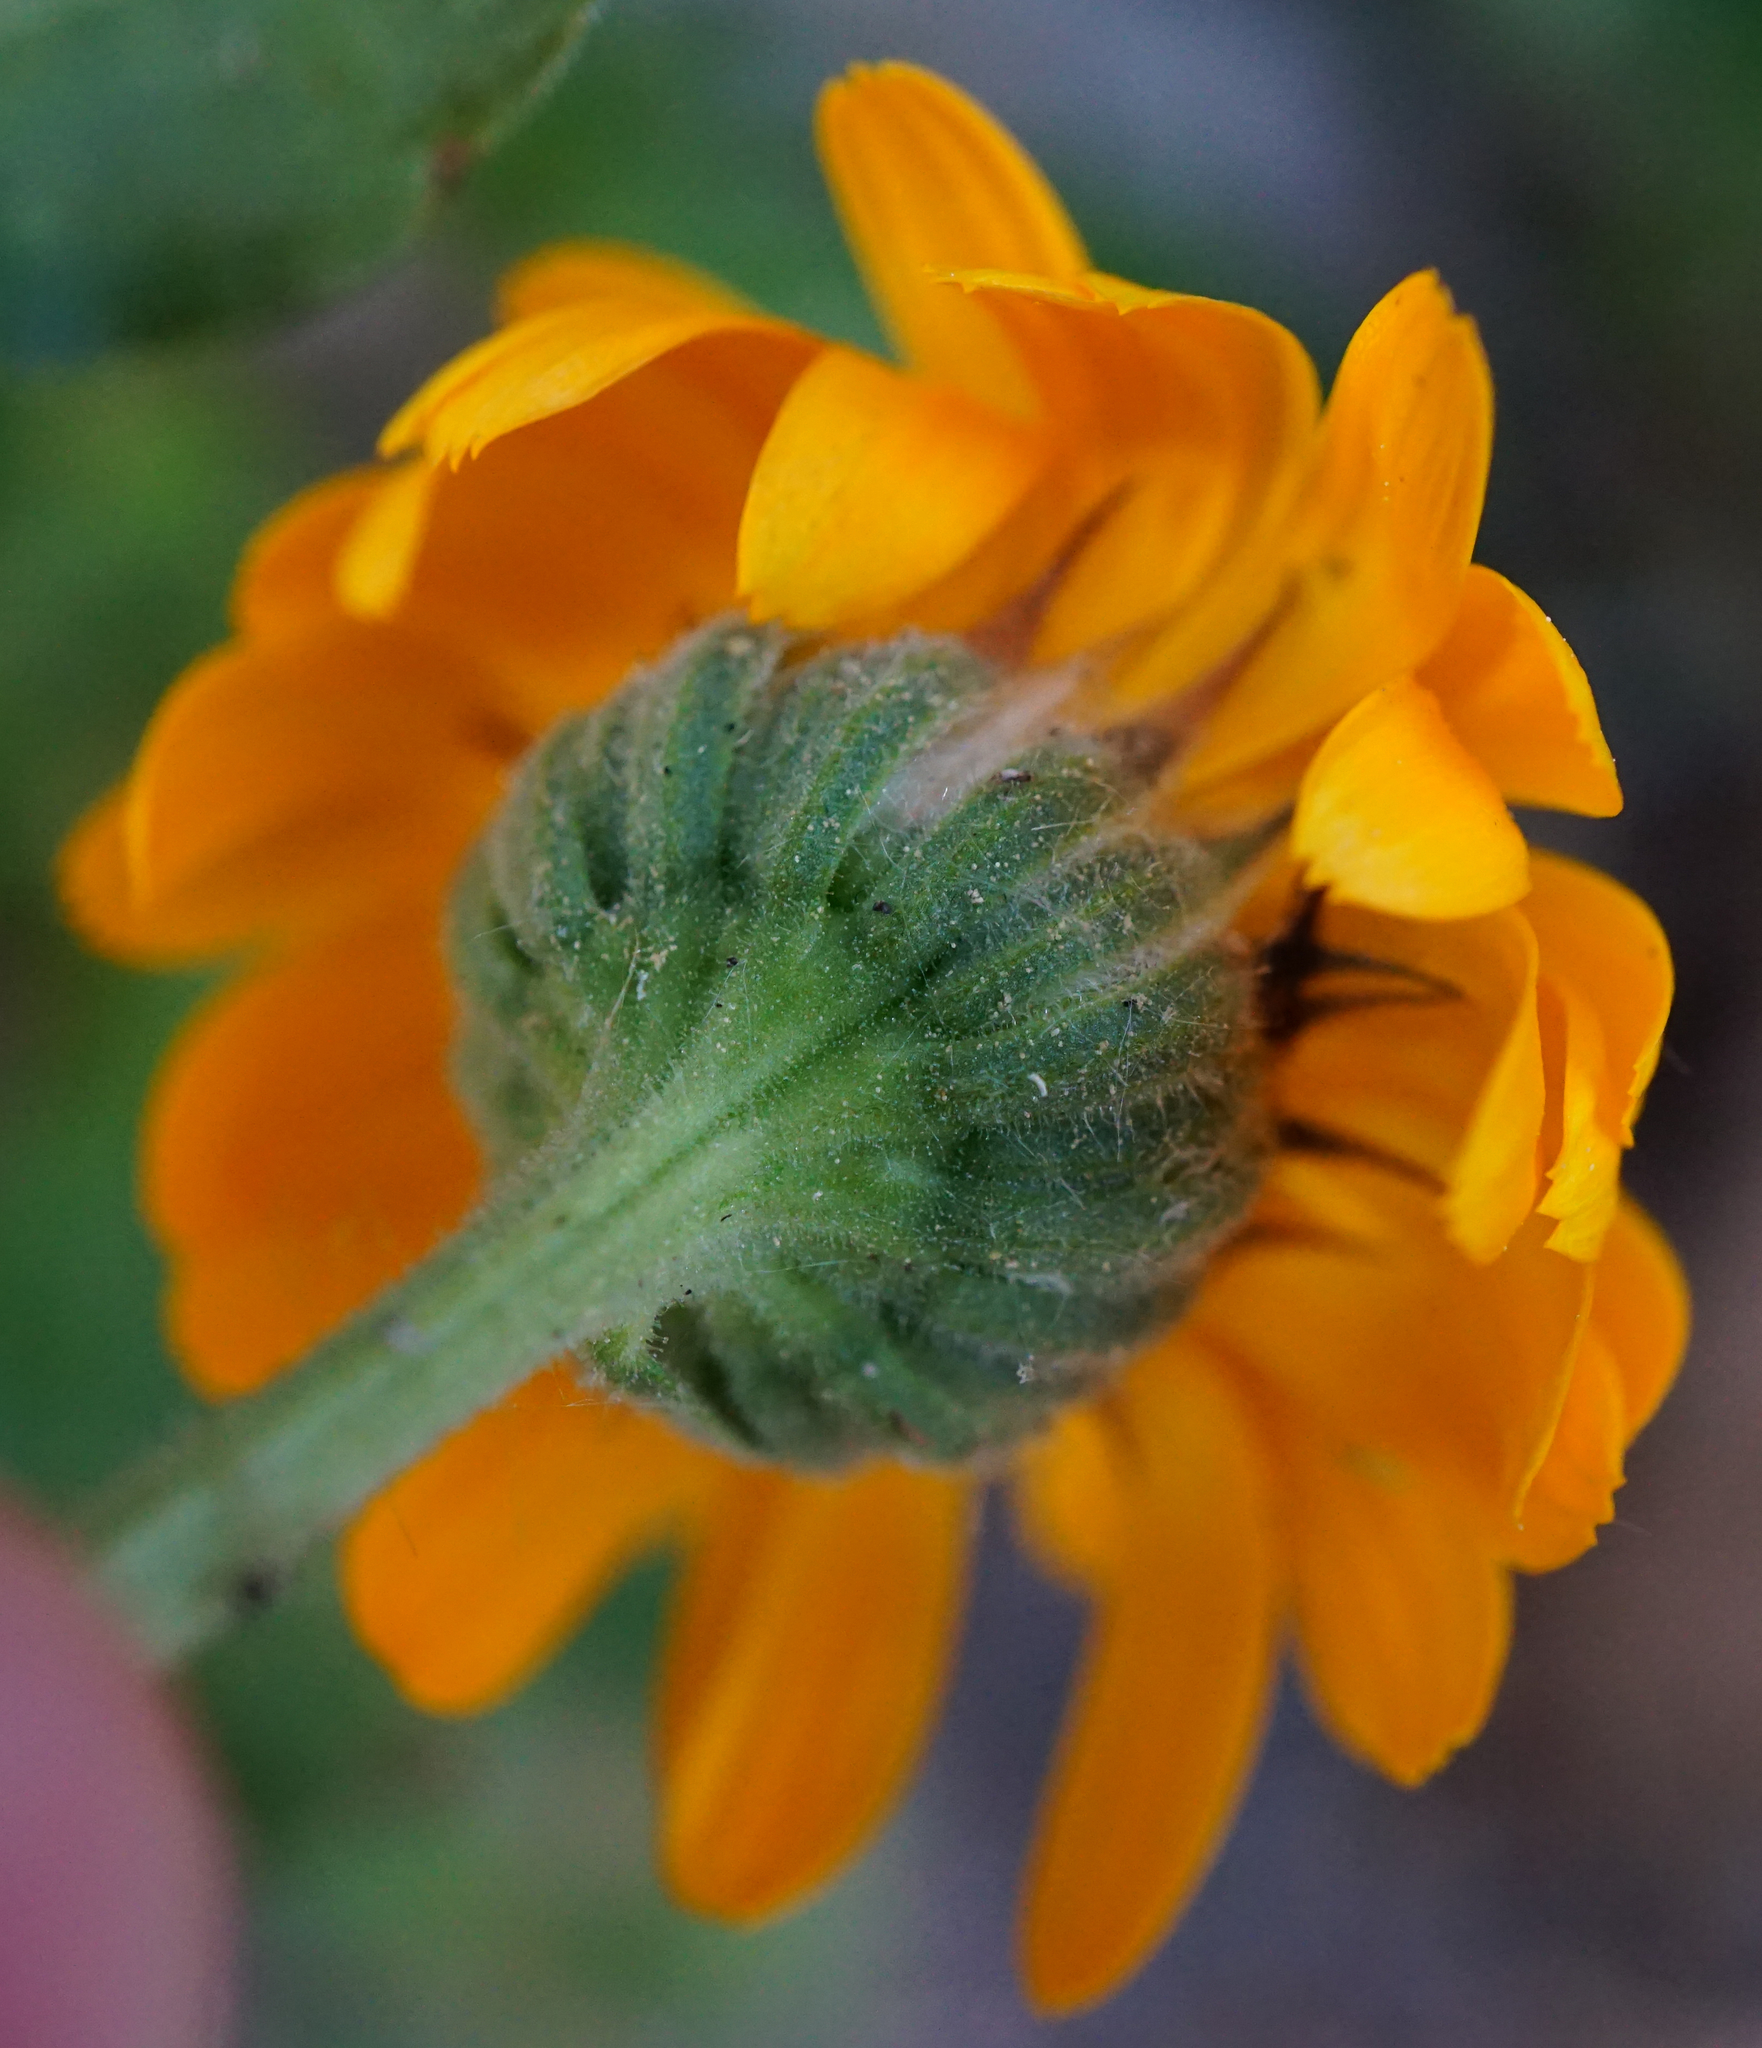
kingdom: Plantae
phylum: Tracheophyta
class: Magnoliopsida
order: Asterales
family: Asteraceae
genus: Calendula
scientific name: Calendula officinalis
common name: Pot marigold
